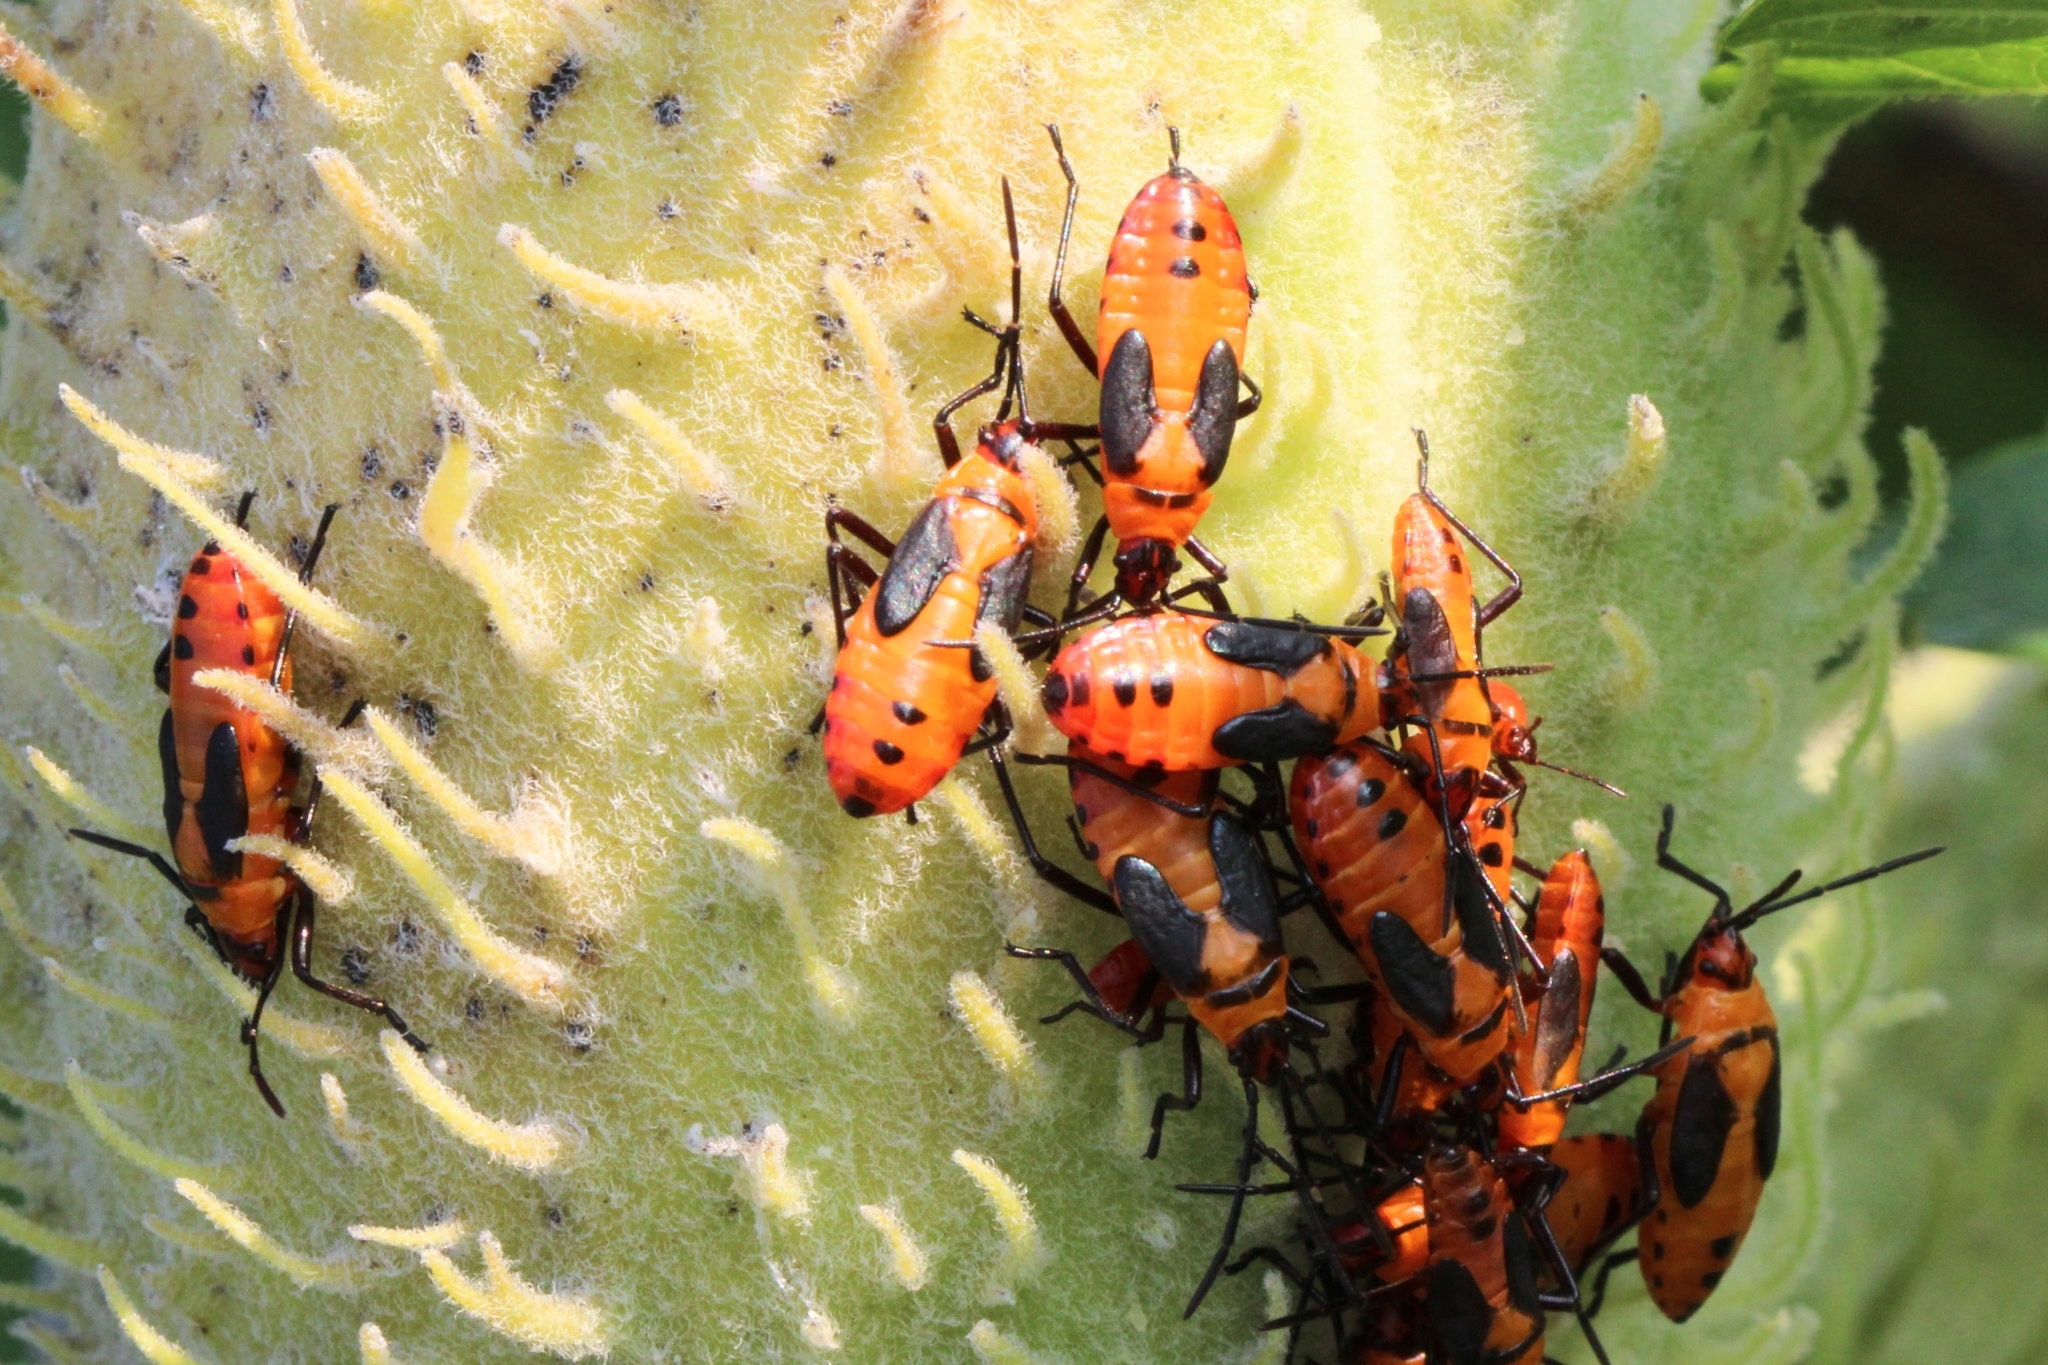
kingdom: Animalia
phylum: Arthropoda
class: Insecta
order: Hemiptera
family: Lygaeidae
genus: Oncopeltus
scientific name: Oncopeltus fasciatus
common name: Large milkweed bug
